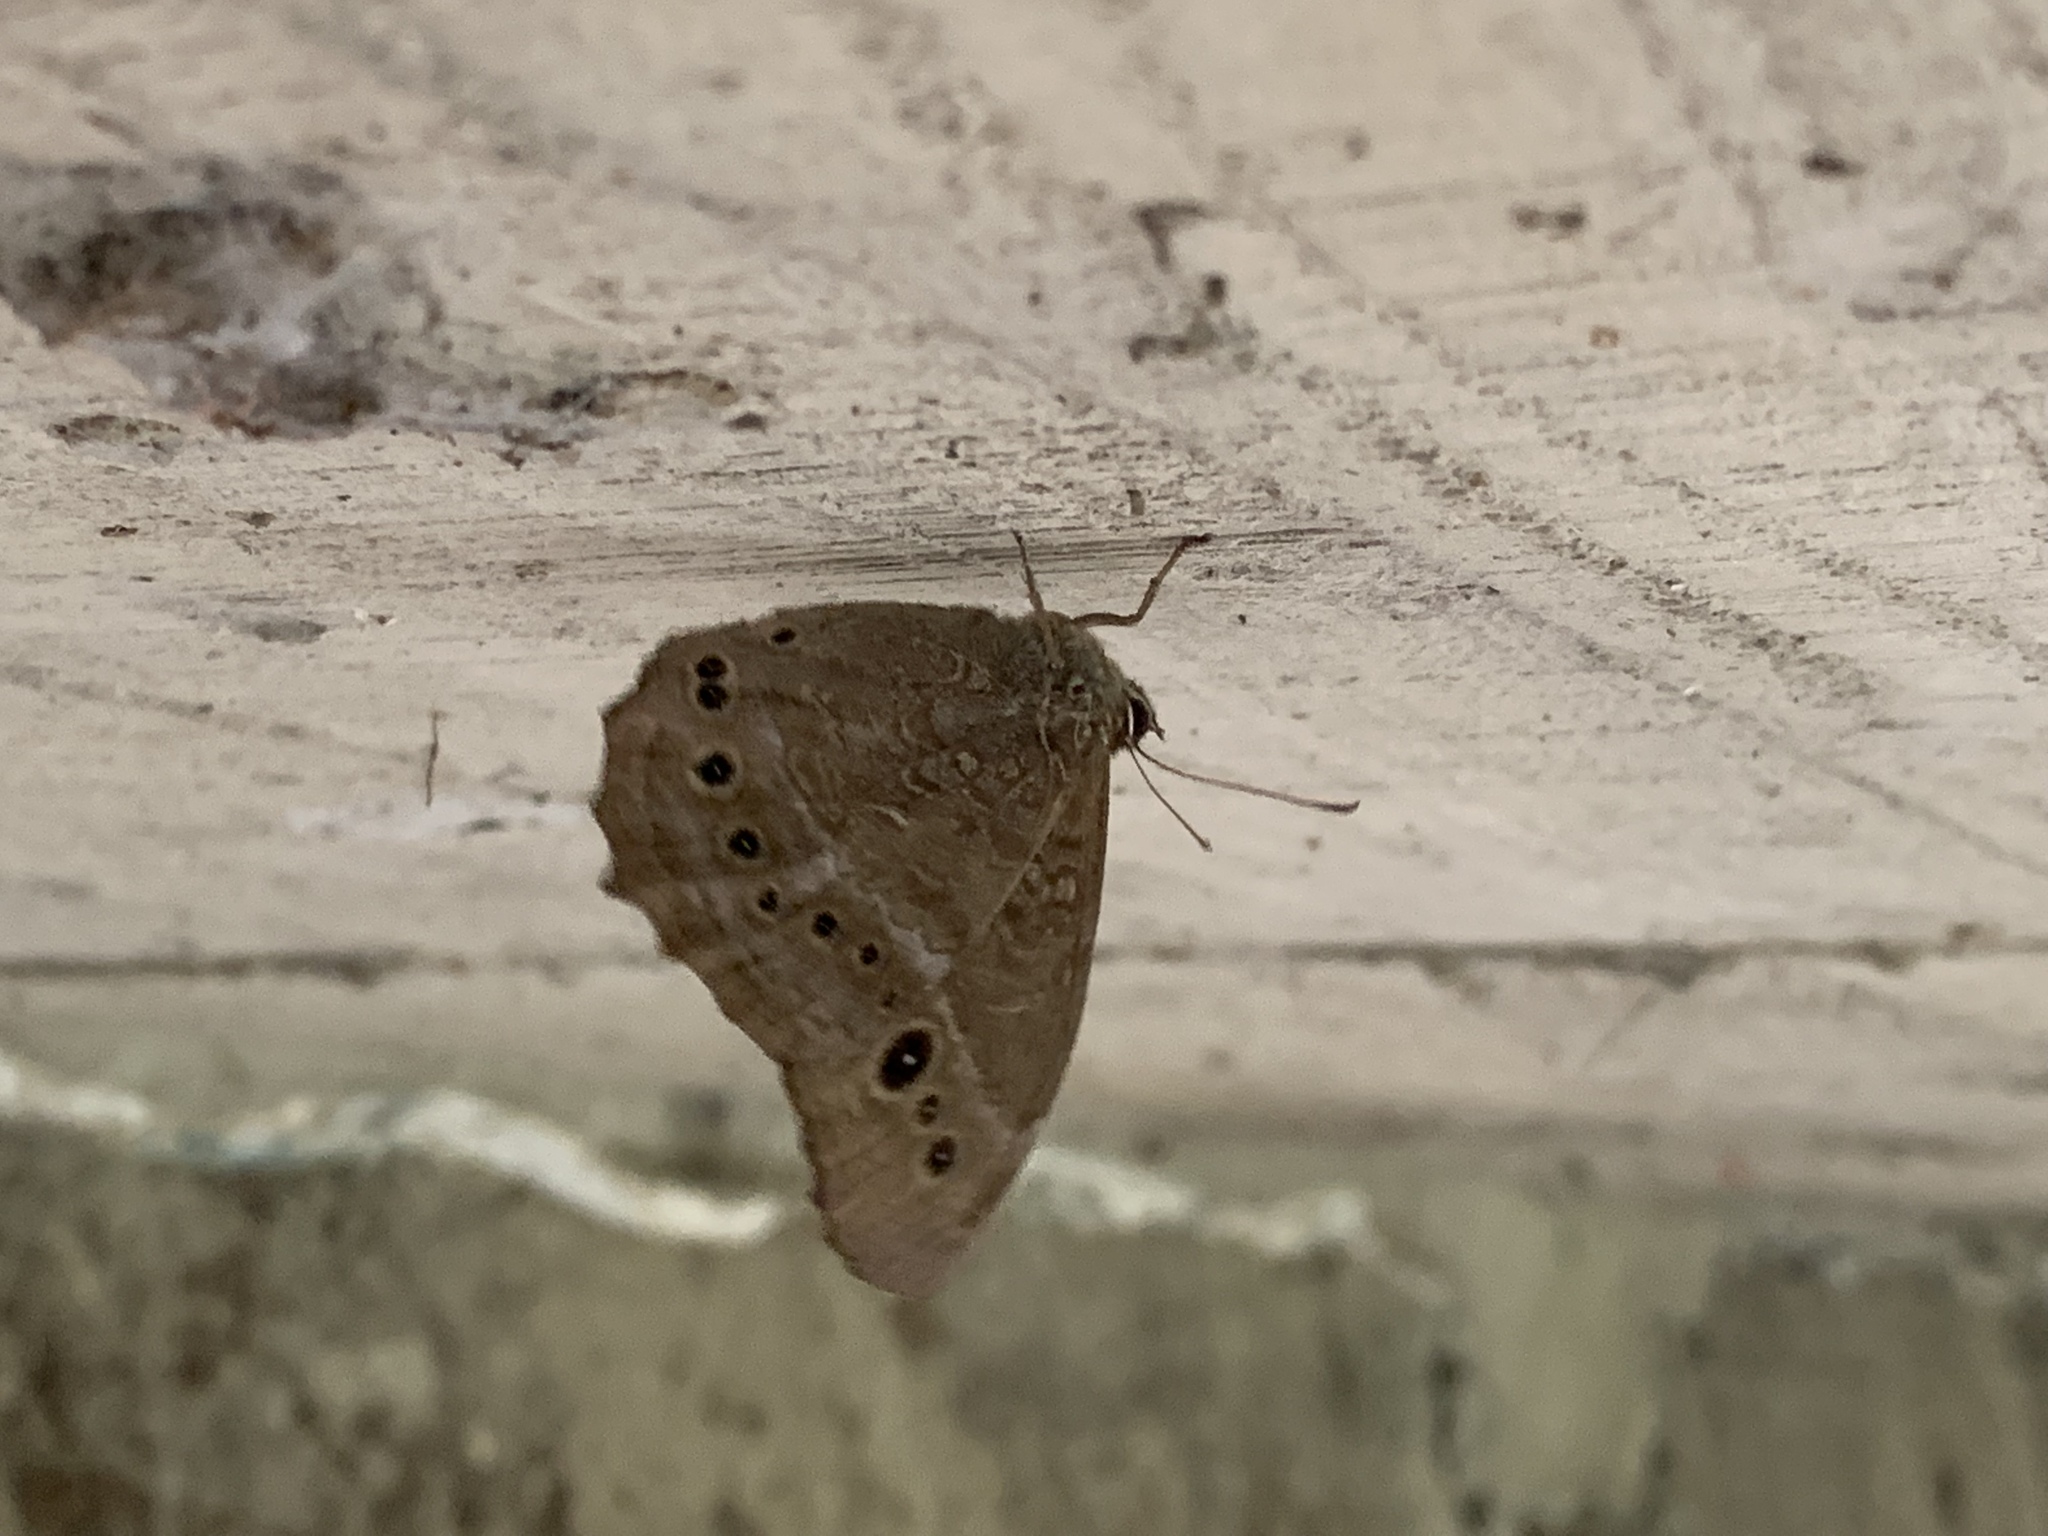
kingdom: Animalia
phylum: Arthropoda
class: Insecta
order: Lepidoptera
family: Nymphalidae
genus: Neope
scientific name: Neope muirheadii
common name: Black-spotted labyrinth
